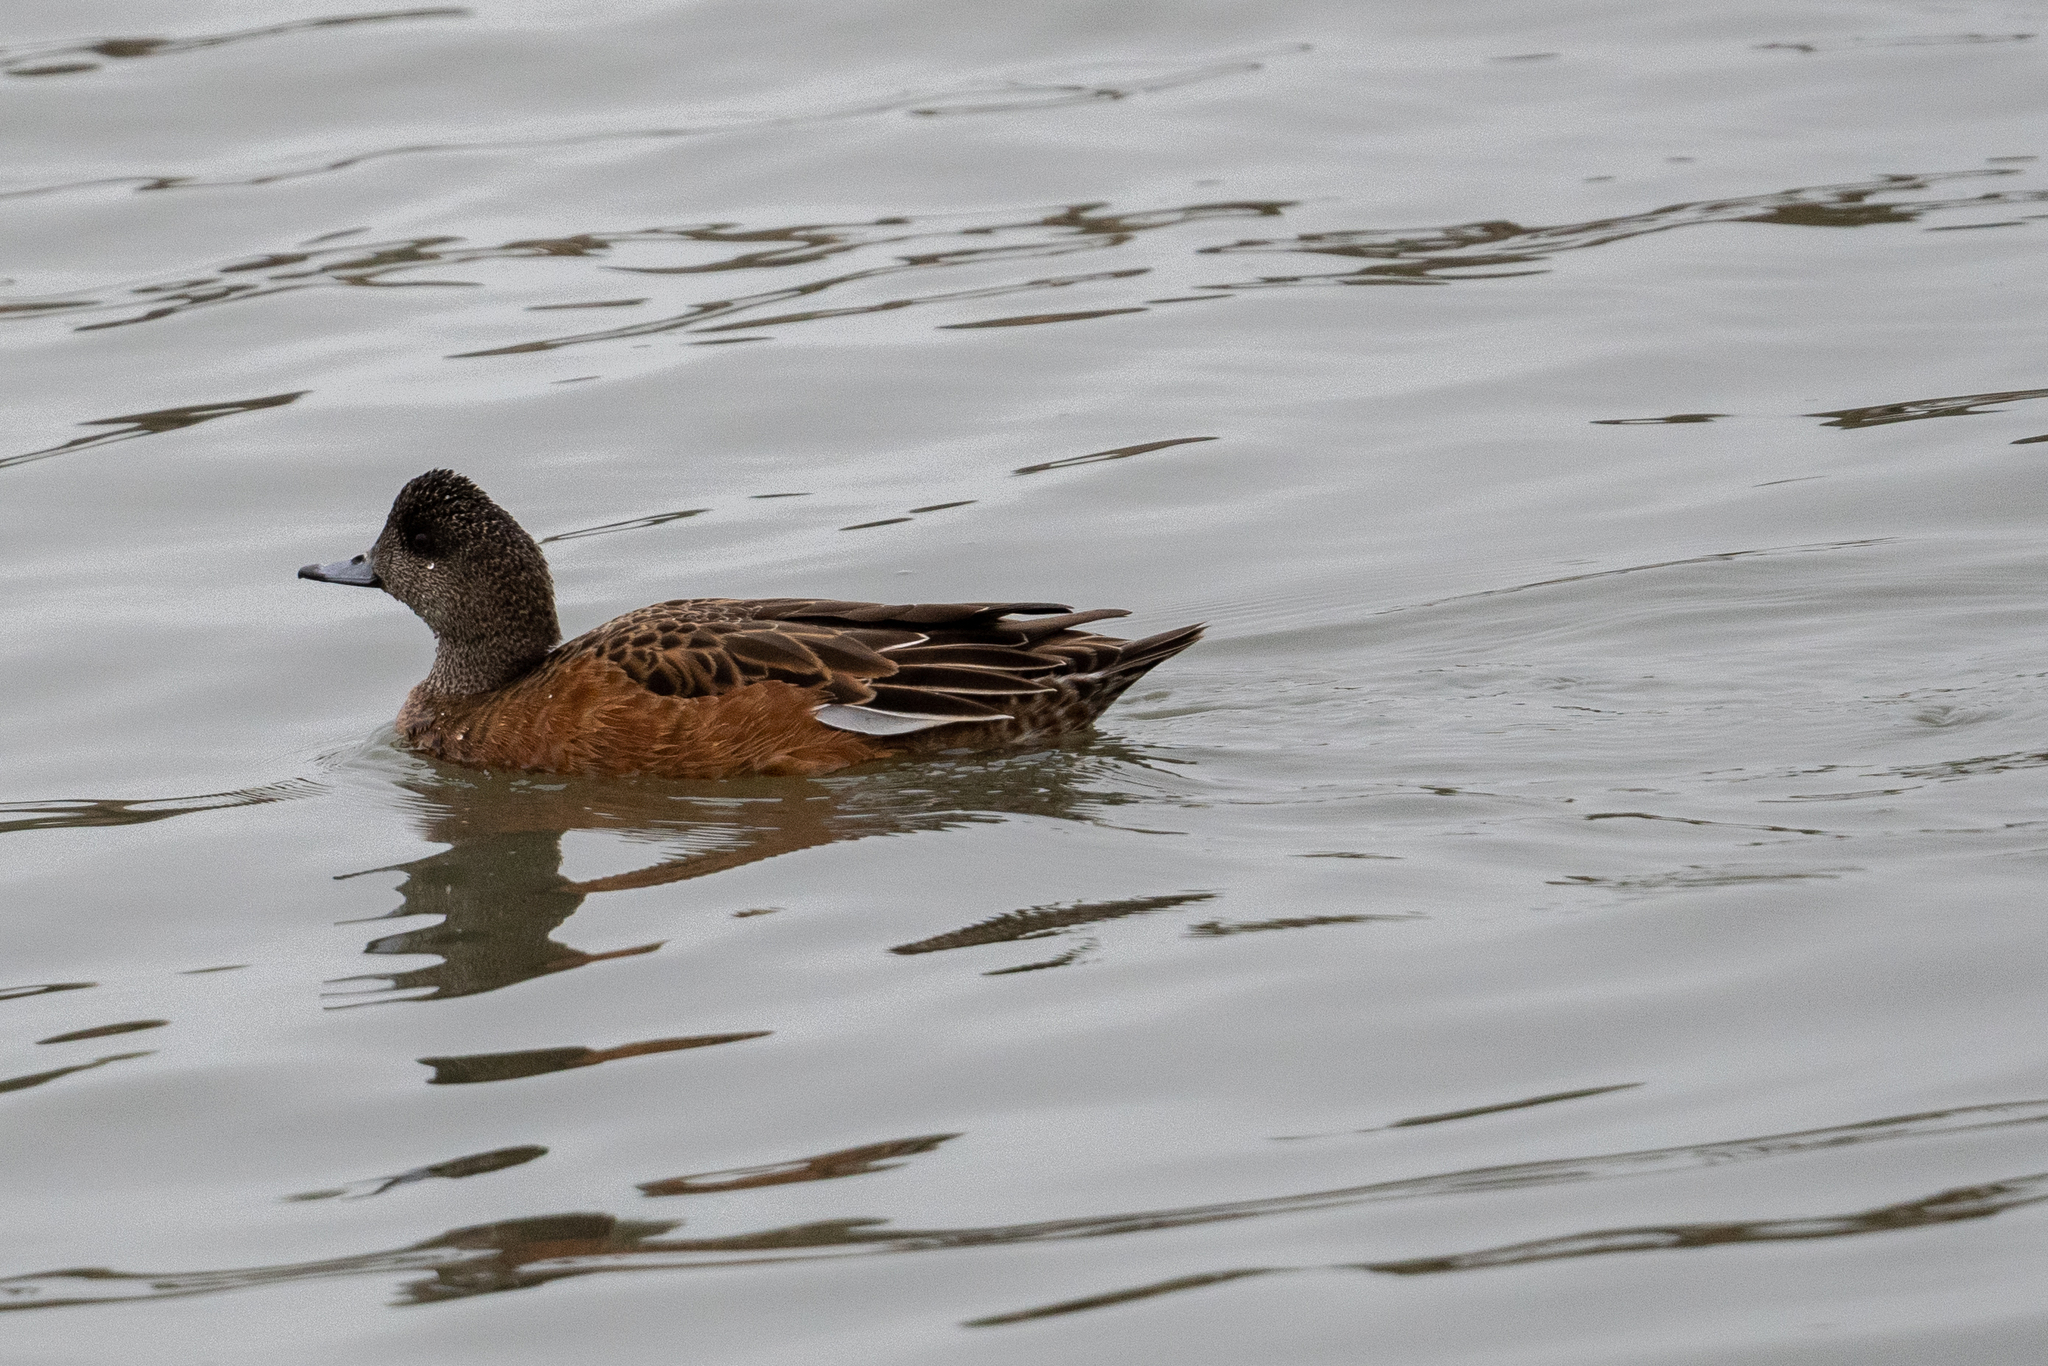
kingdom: Animalia
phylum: Chordata
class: Aves
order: Anseriformes
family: Anatidae
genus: Mareca
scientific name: Mareca americana
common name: American wigeon
